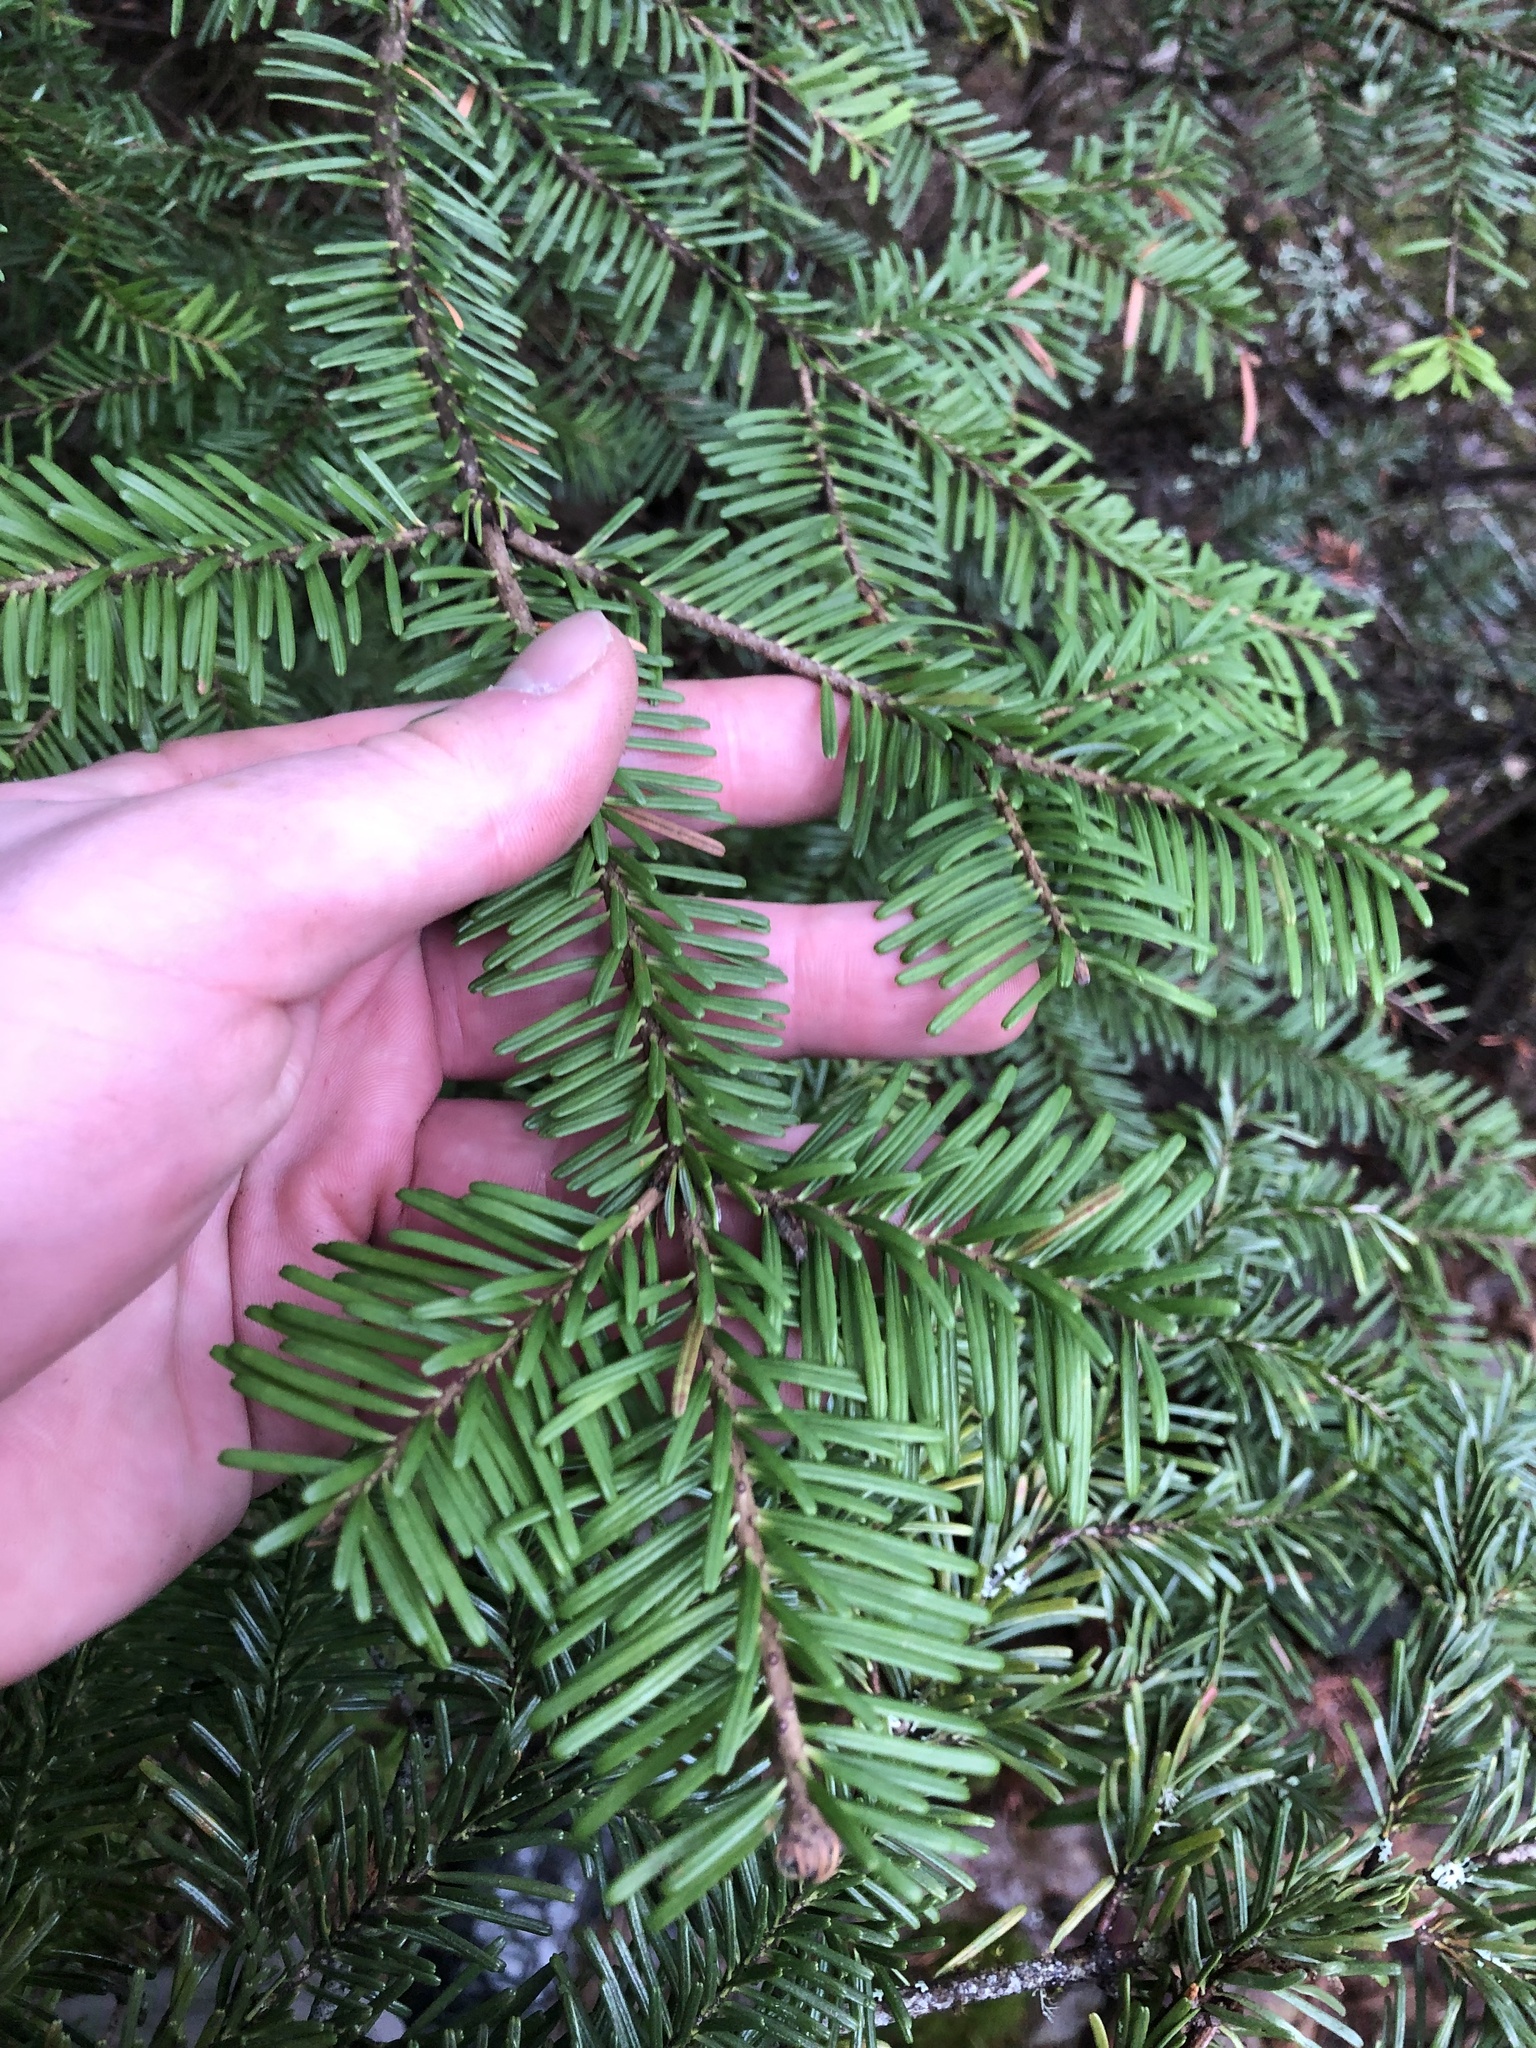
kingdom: Plantae
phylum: Tracheophyta
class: Pinopsida
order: Pinales
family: Pinaceae
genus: Abies
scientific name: Abies amabilis
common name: Pacific silver fir
